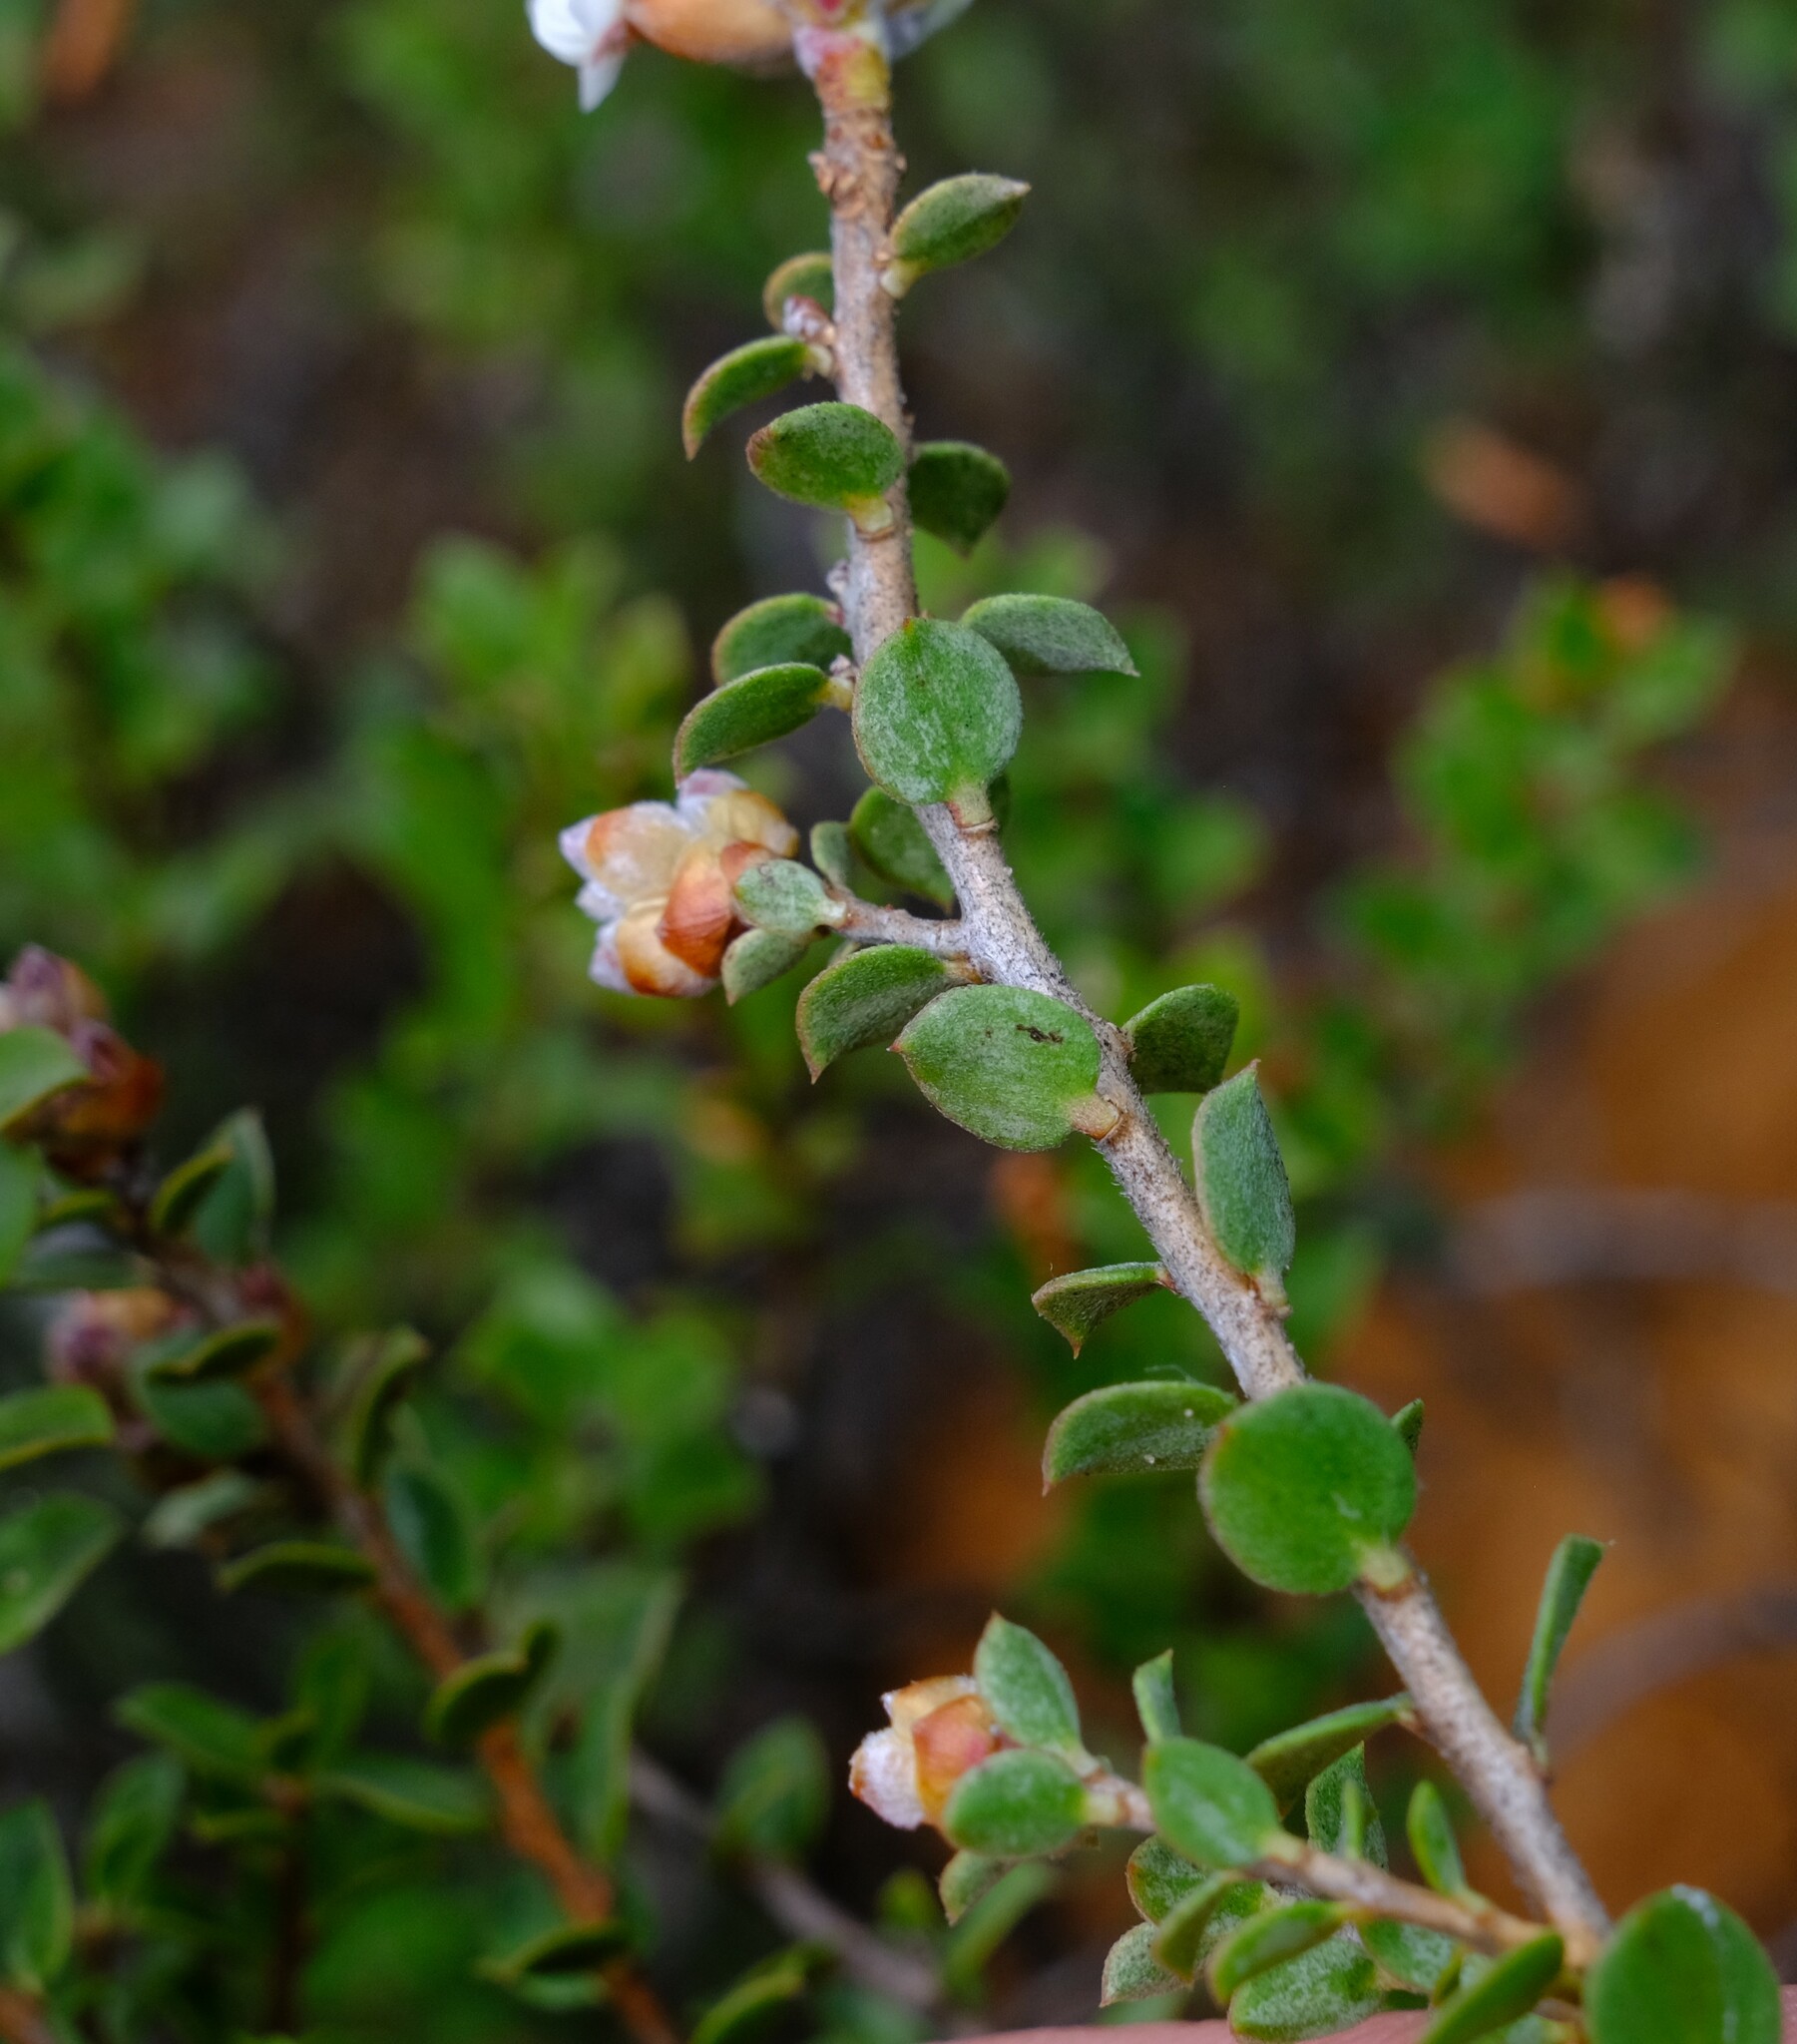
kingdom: Plantae
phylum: Tracheophyta
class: Magnoliopsida
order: Myrtales
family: Myrtaceae
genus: Kunzea
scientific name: Kunzea pomifera
